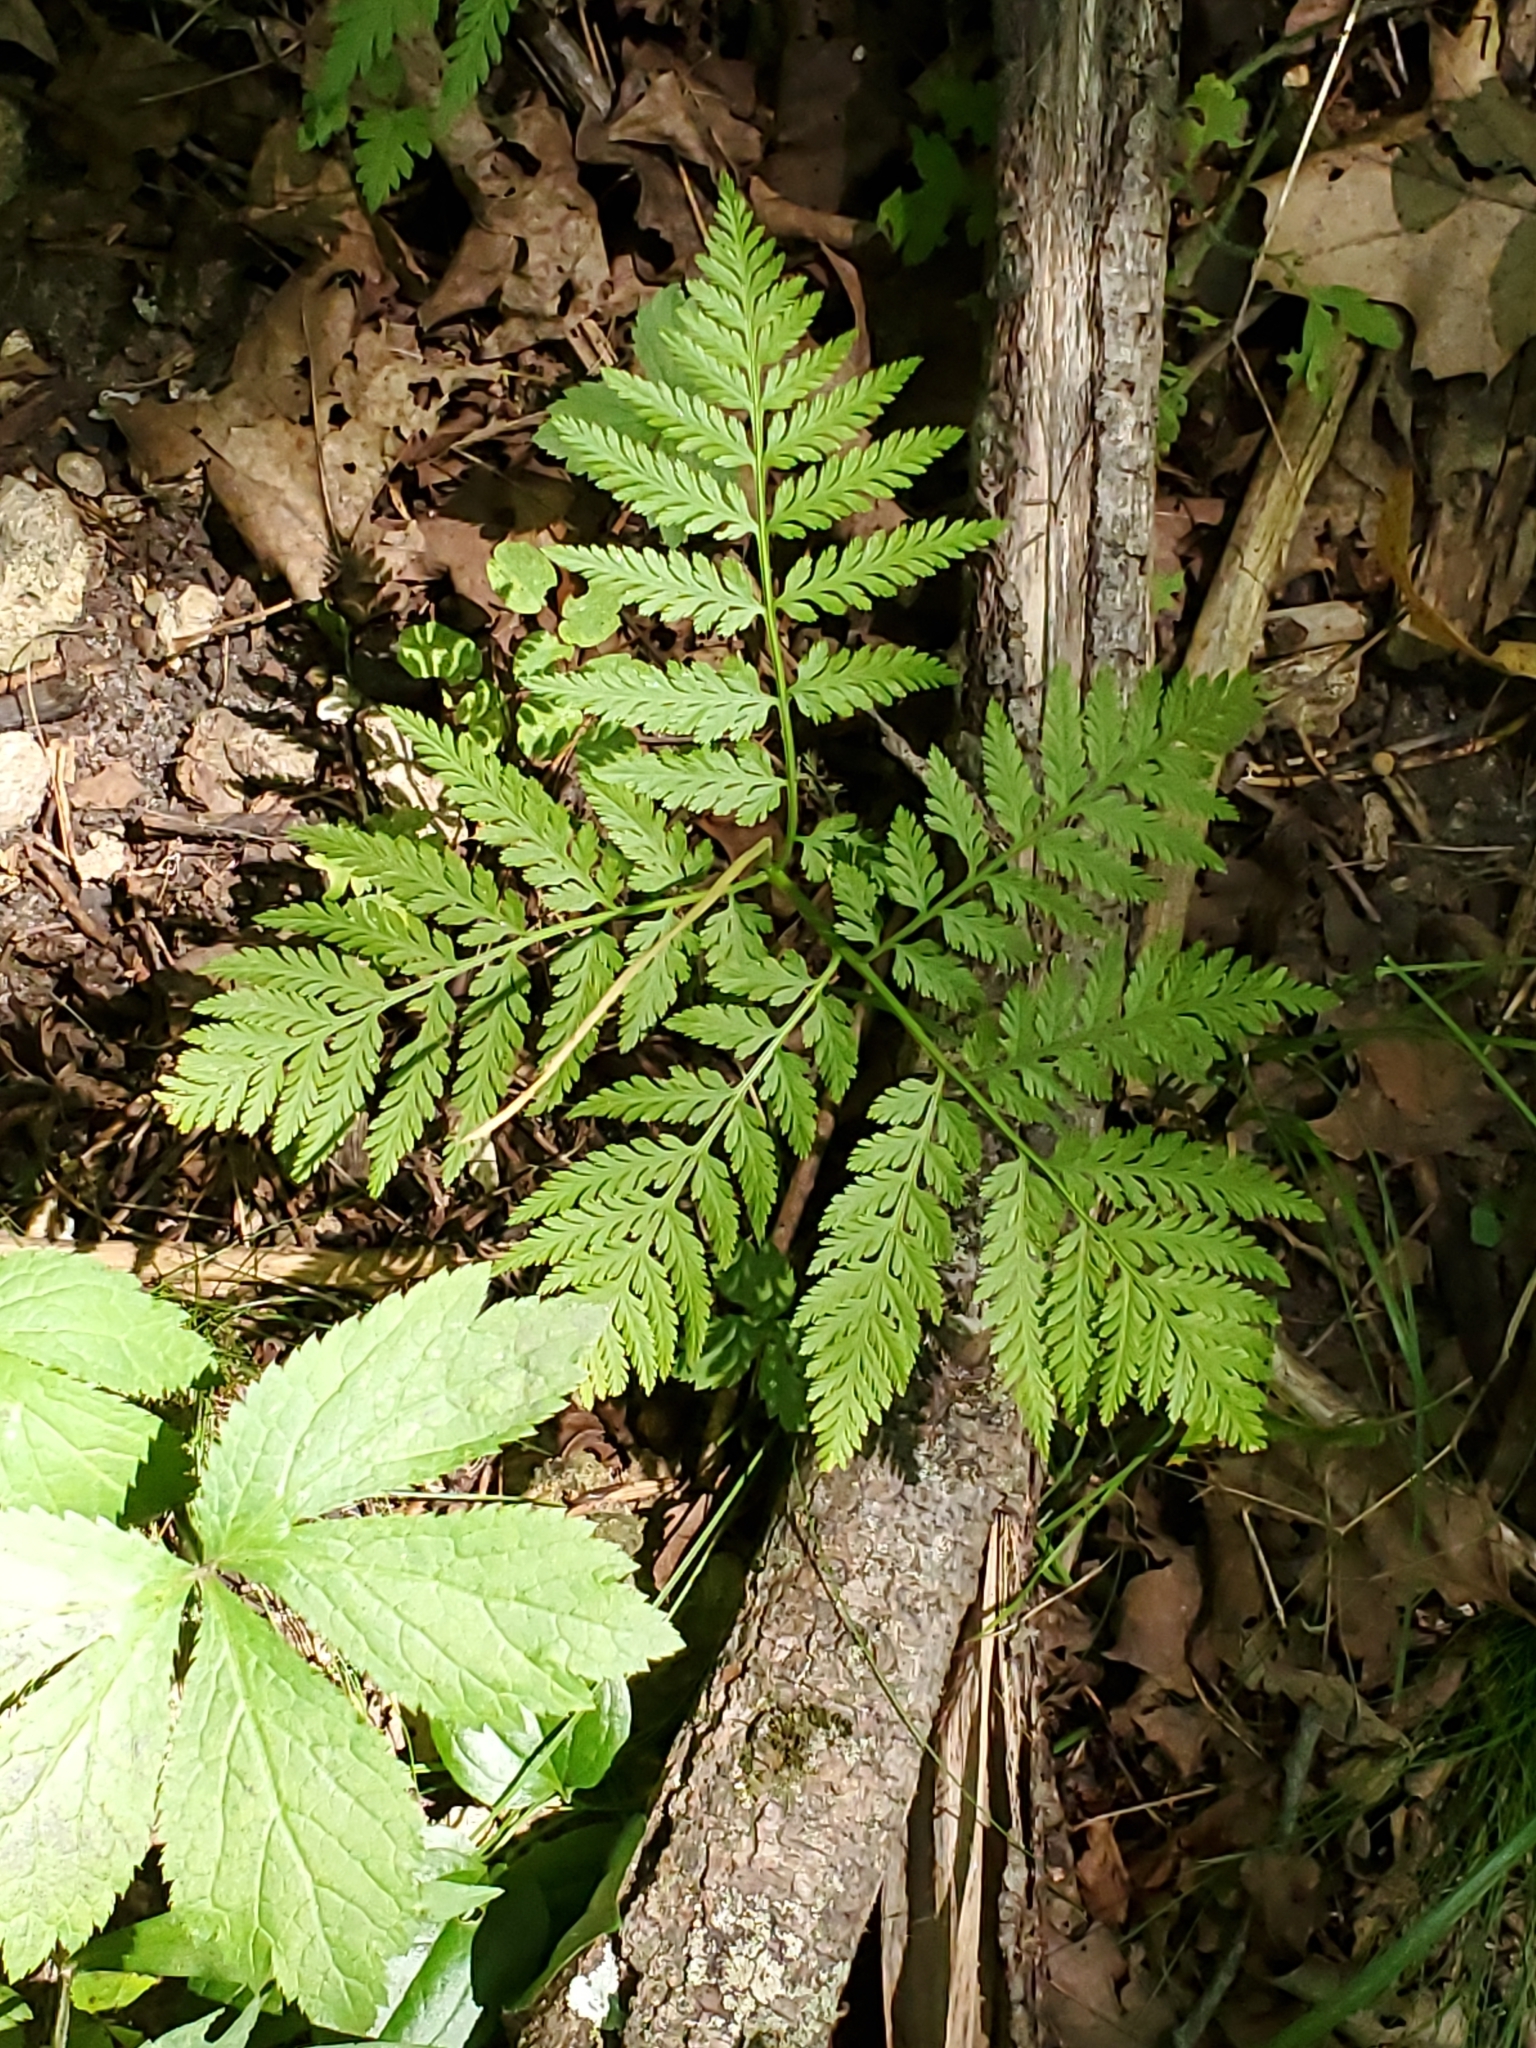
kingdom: Plantae
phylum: Tracheophyta
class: Polypodiopsida
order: Ophioglossales
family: Ophioglossaceae
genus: Botrypus
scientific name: Botrypus virginianus
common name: Common grapefern
